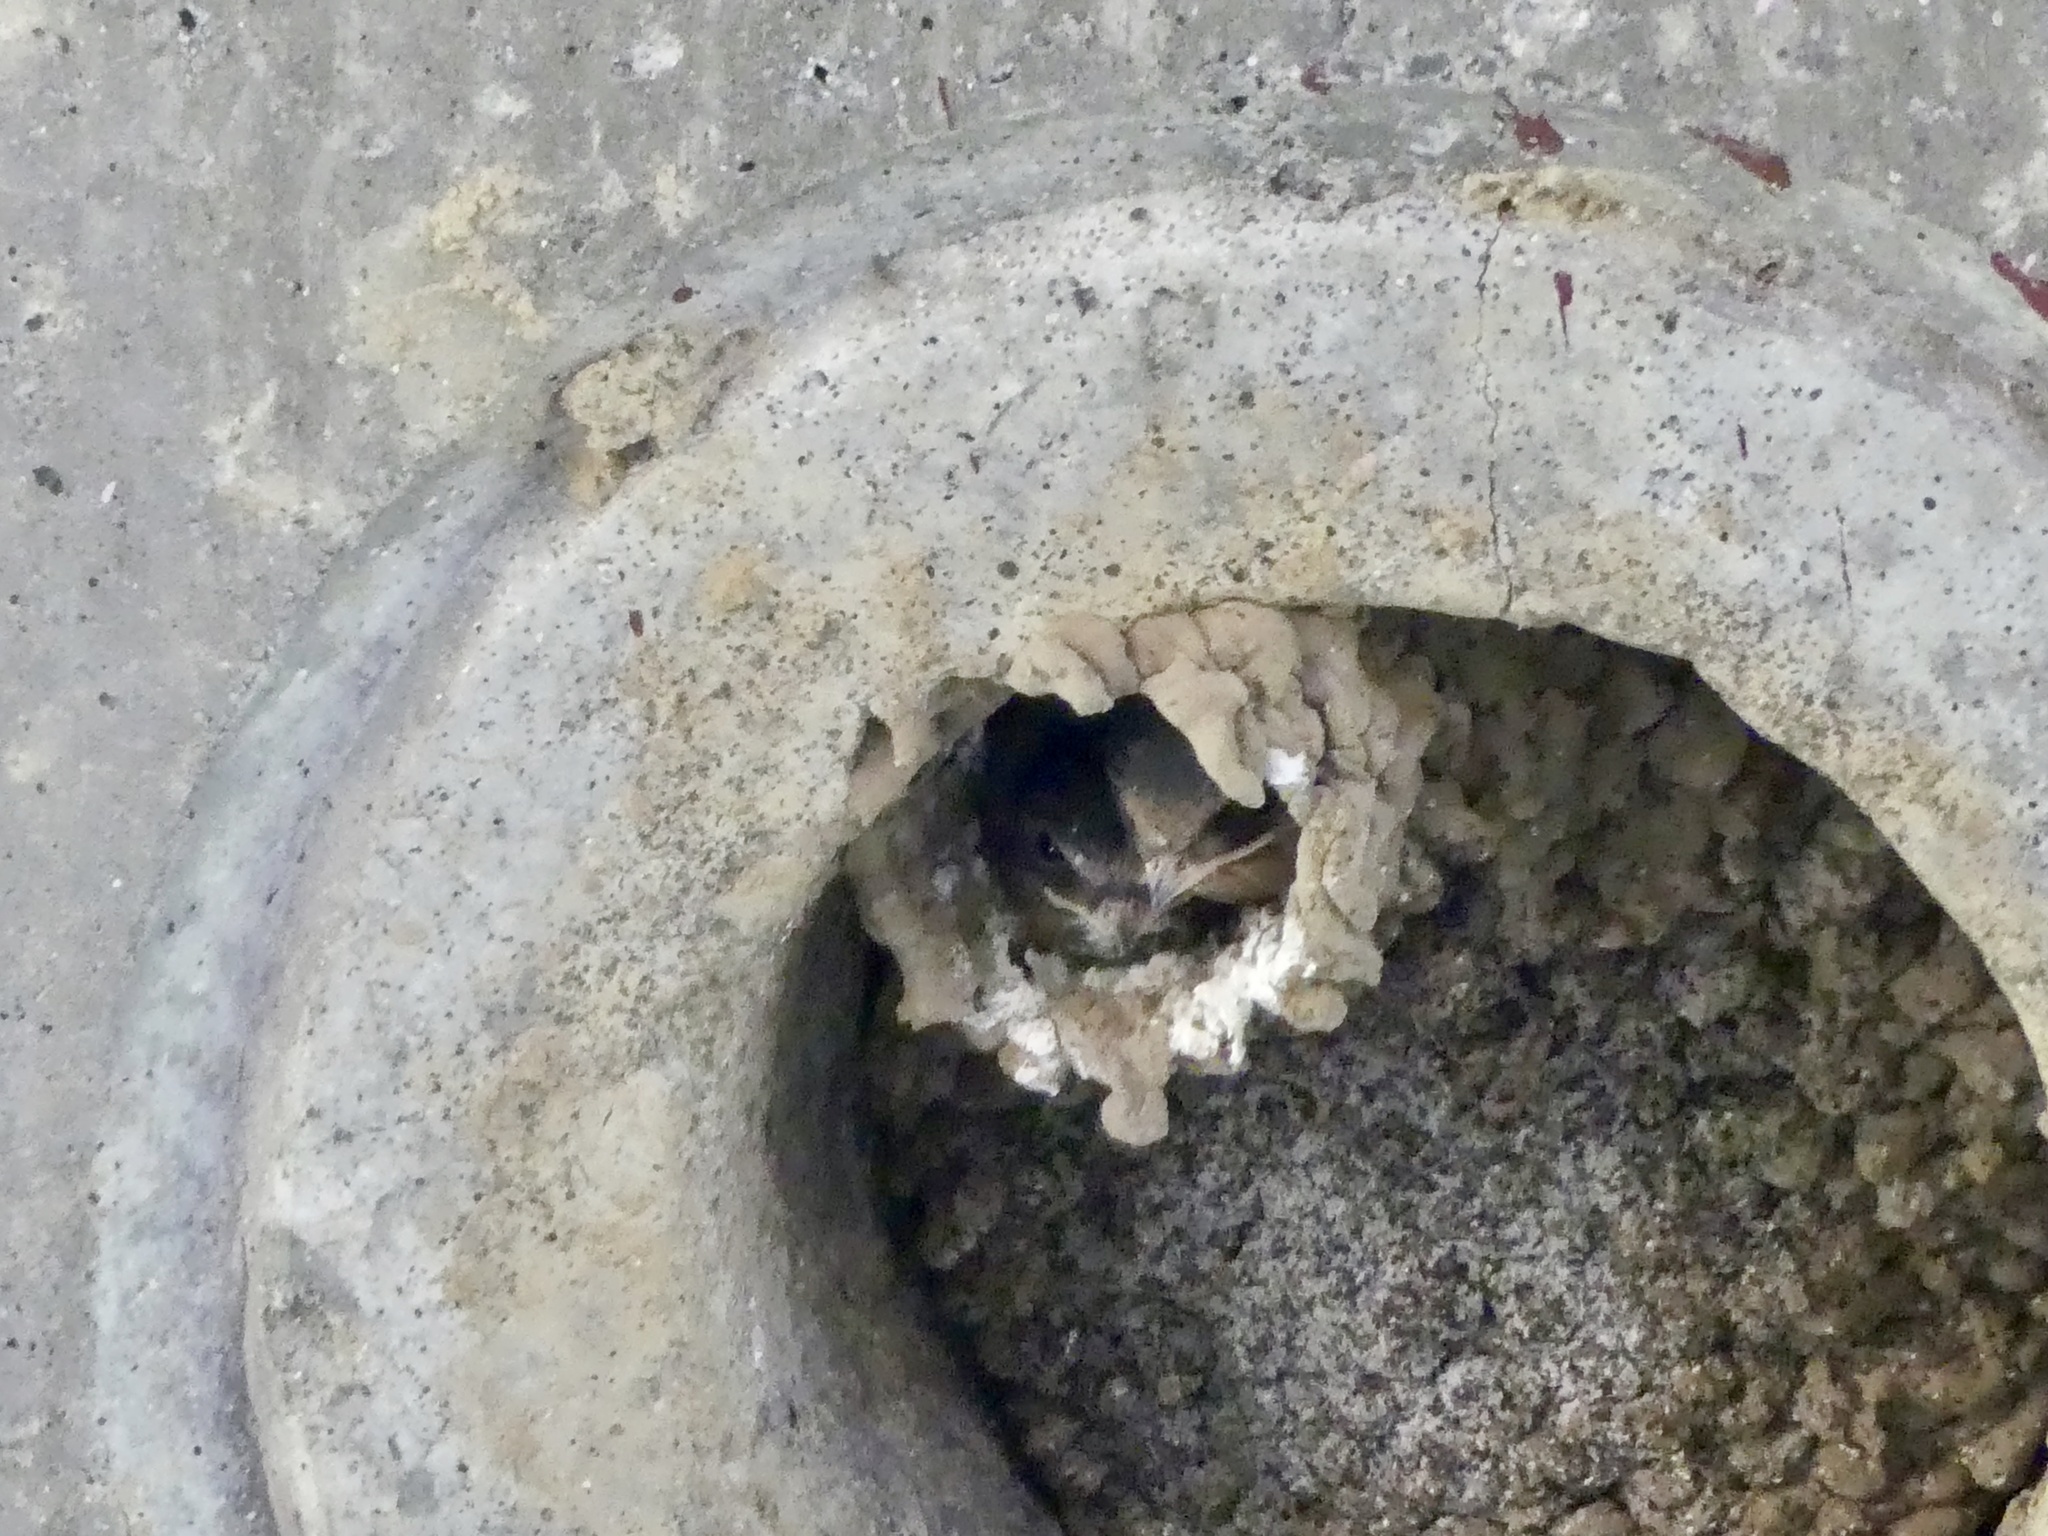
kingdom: Animalia
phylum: Chordata
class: Aves
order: Passeriformes
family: Hirundinidae
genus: Petrochelidon
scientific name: Petrochelidon pyrrhonota
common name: American cliff swallow
